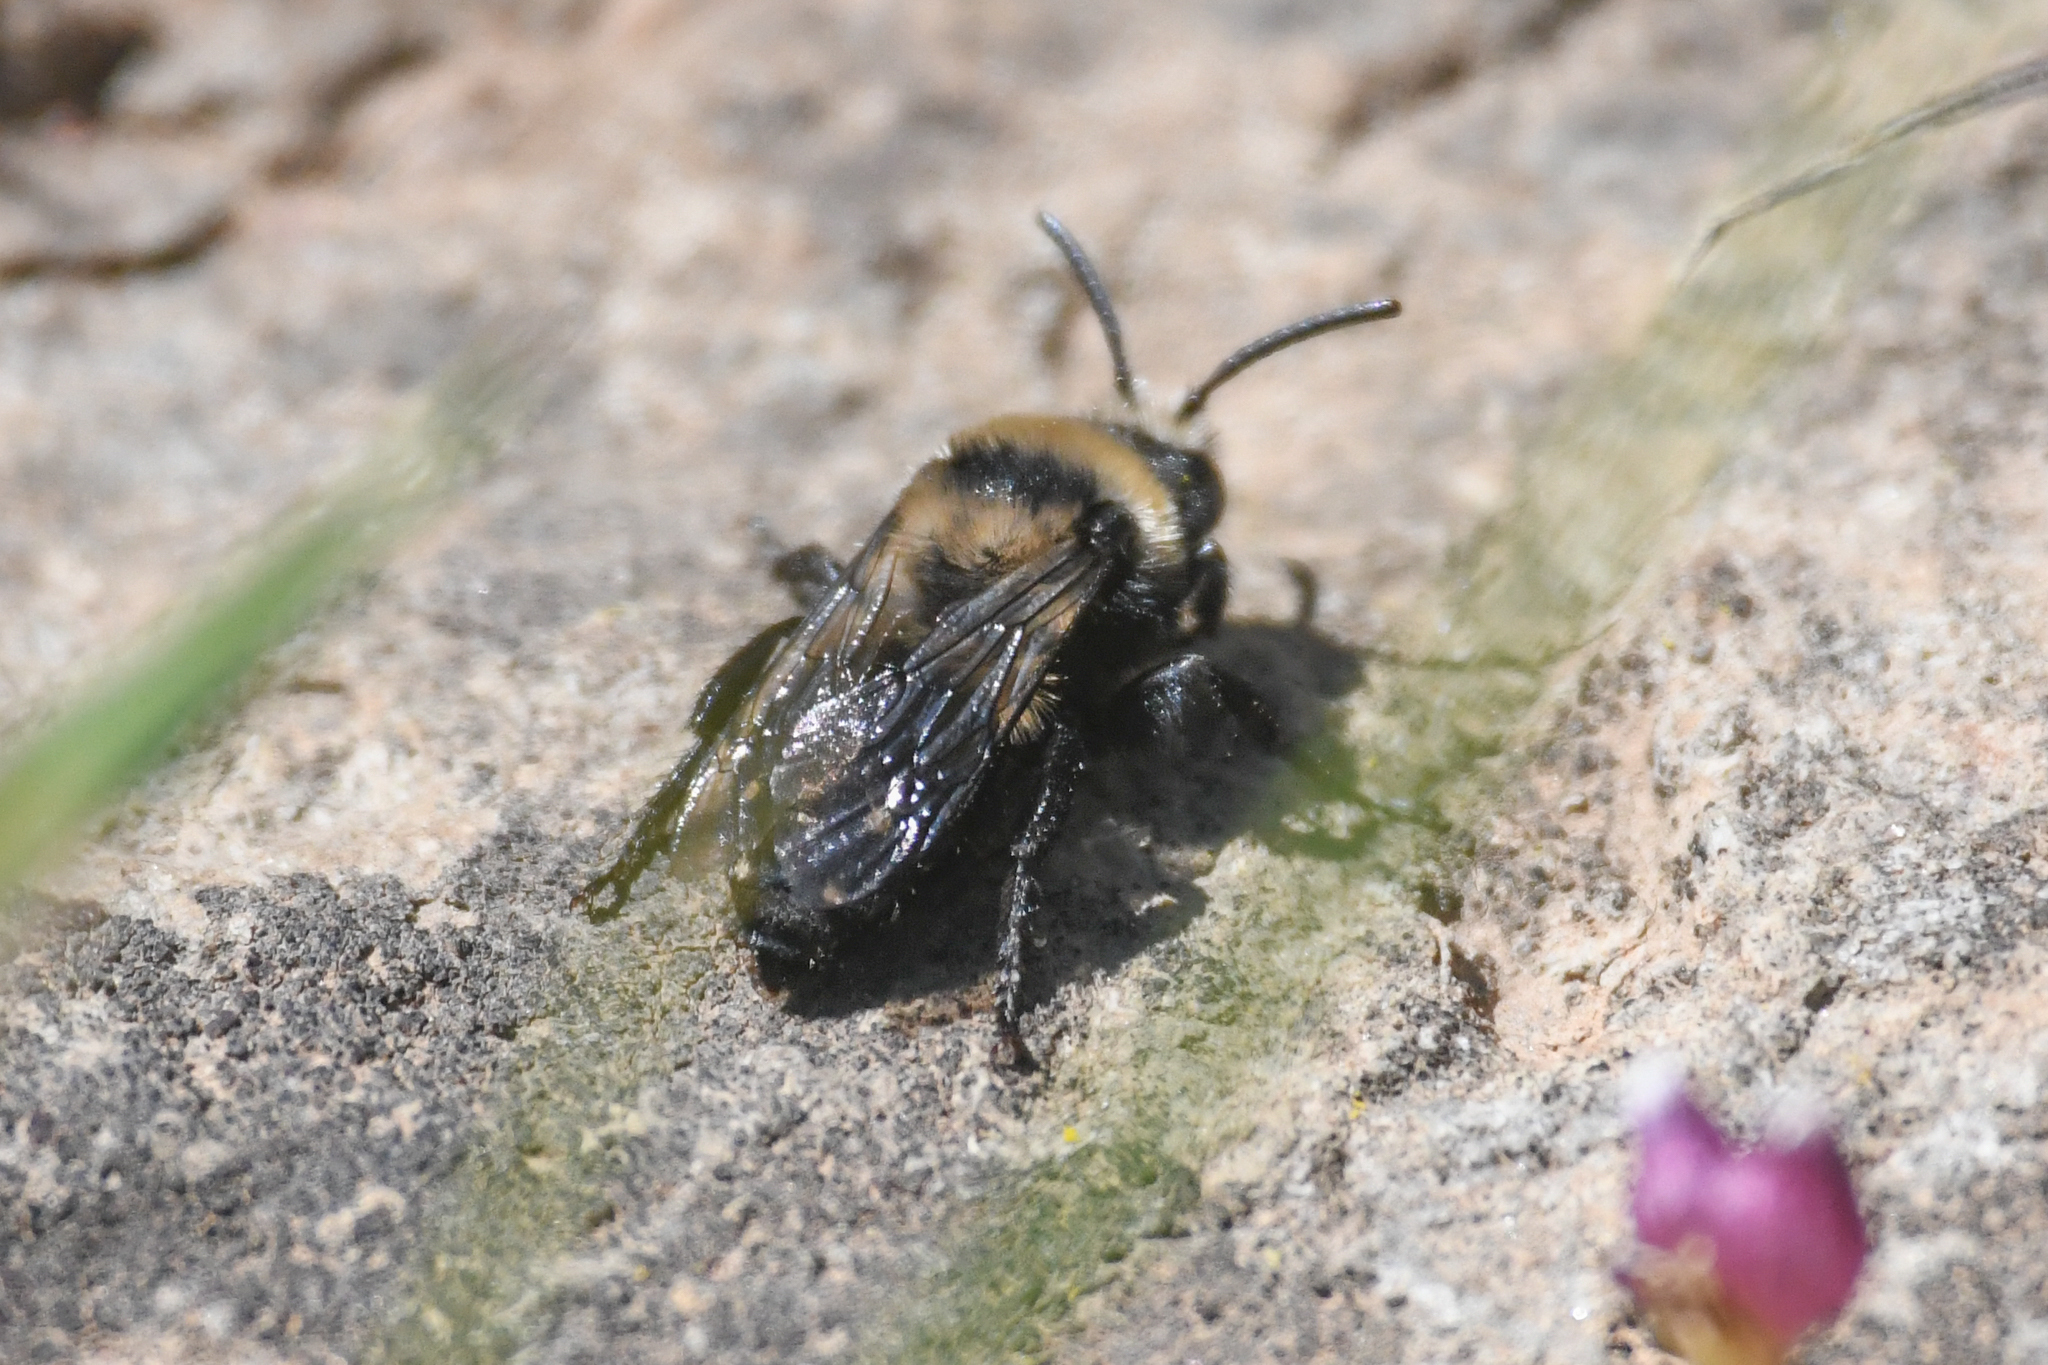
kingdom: Animalia
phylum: Arthropoda
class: Insecta
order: Hymenoptera
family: Apidae
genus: Melecta
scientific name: Melecta separata
